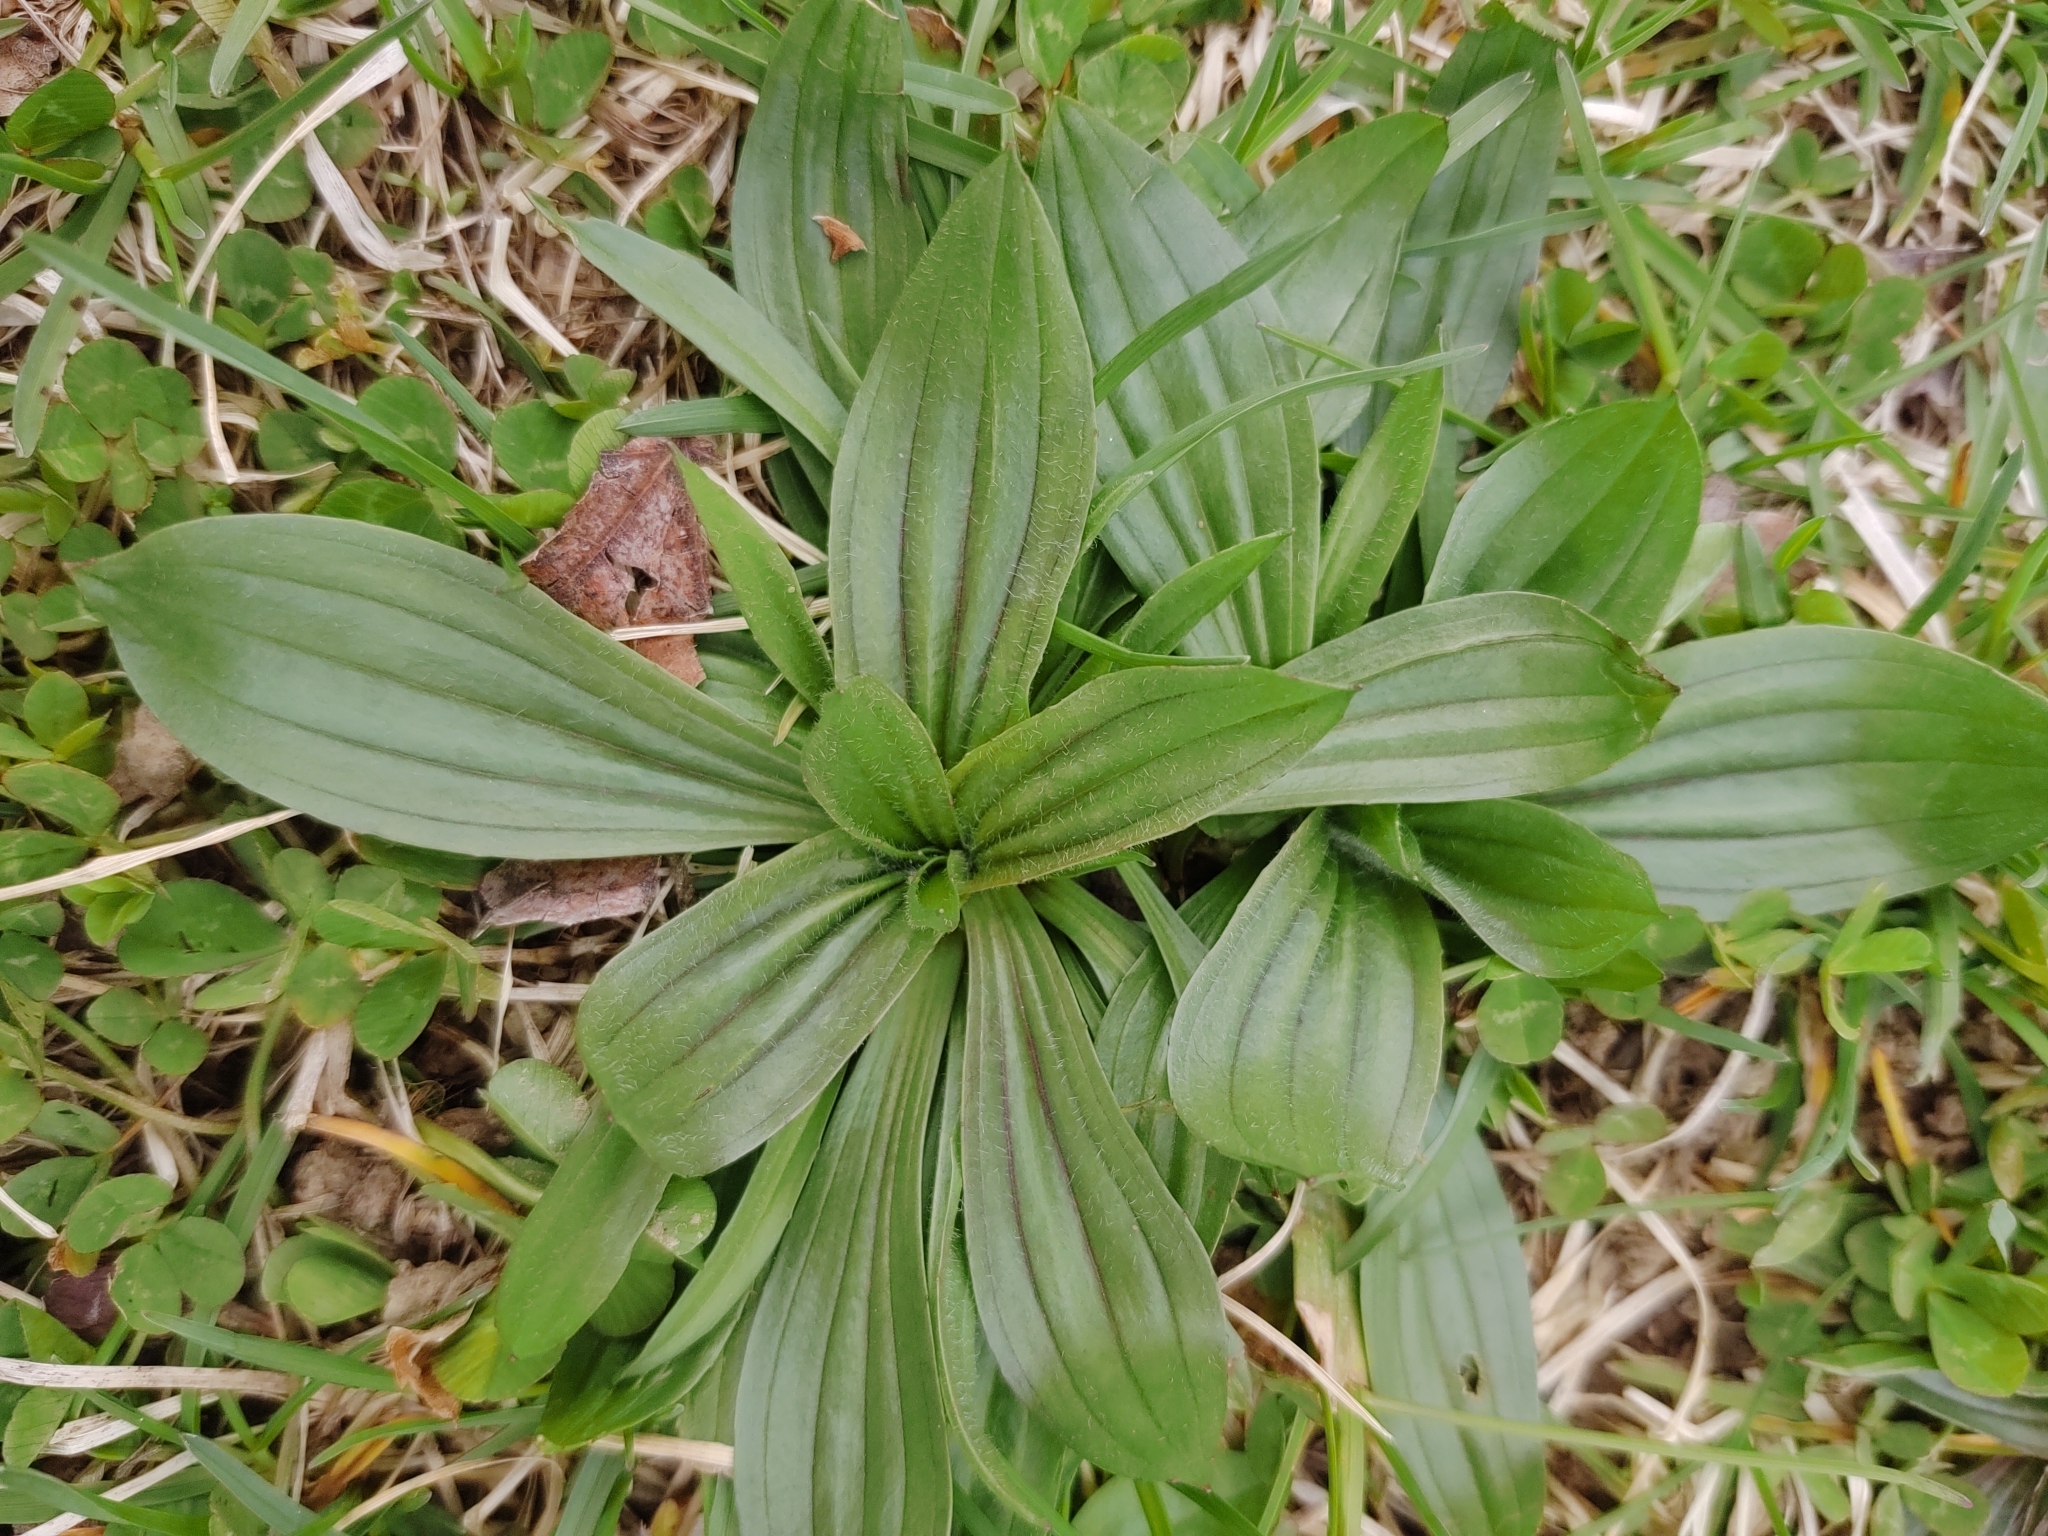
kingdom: Plantae
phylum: Tracheophyta
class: Magnoliopsida
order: Lamiales
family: Plantaginaceae
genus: Plantago
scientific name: Plantago lanceolata
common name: Ribwort plantain
